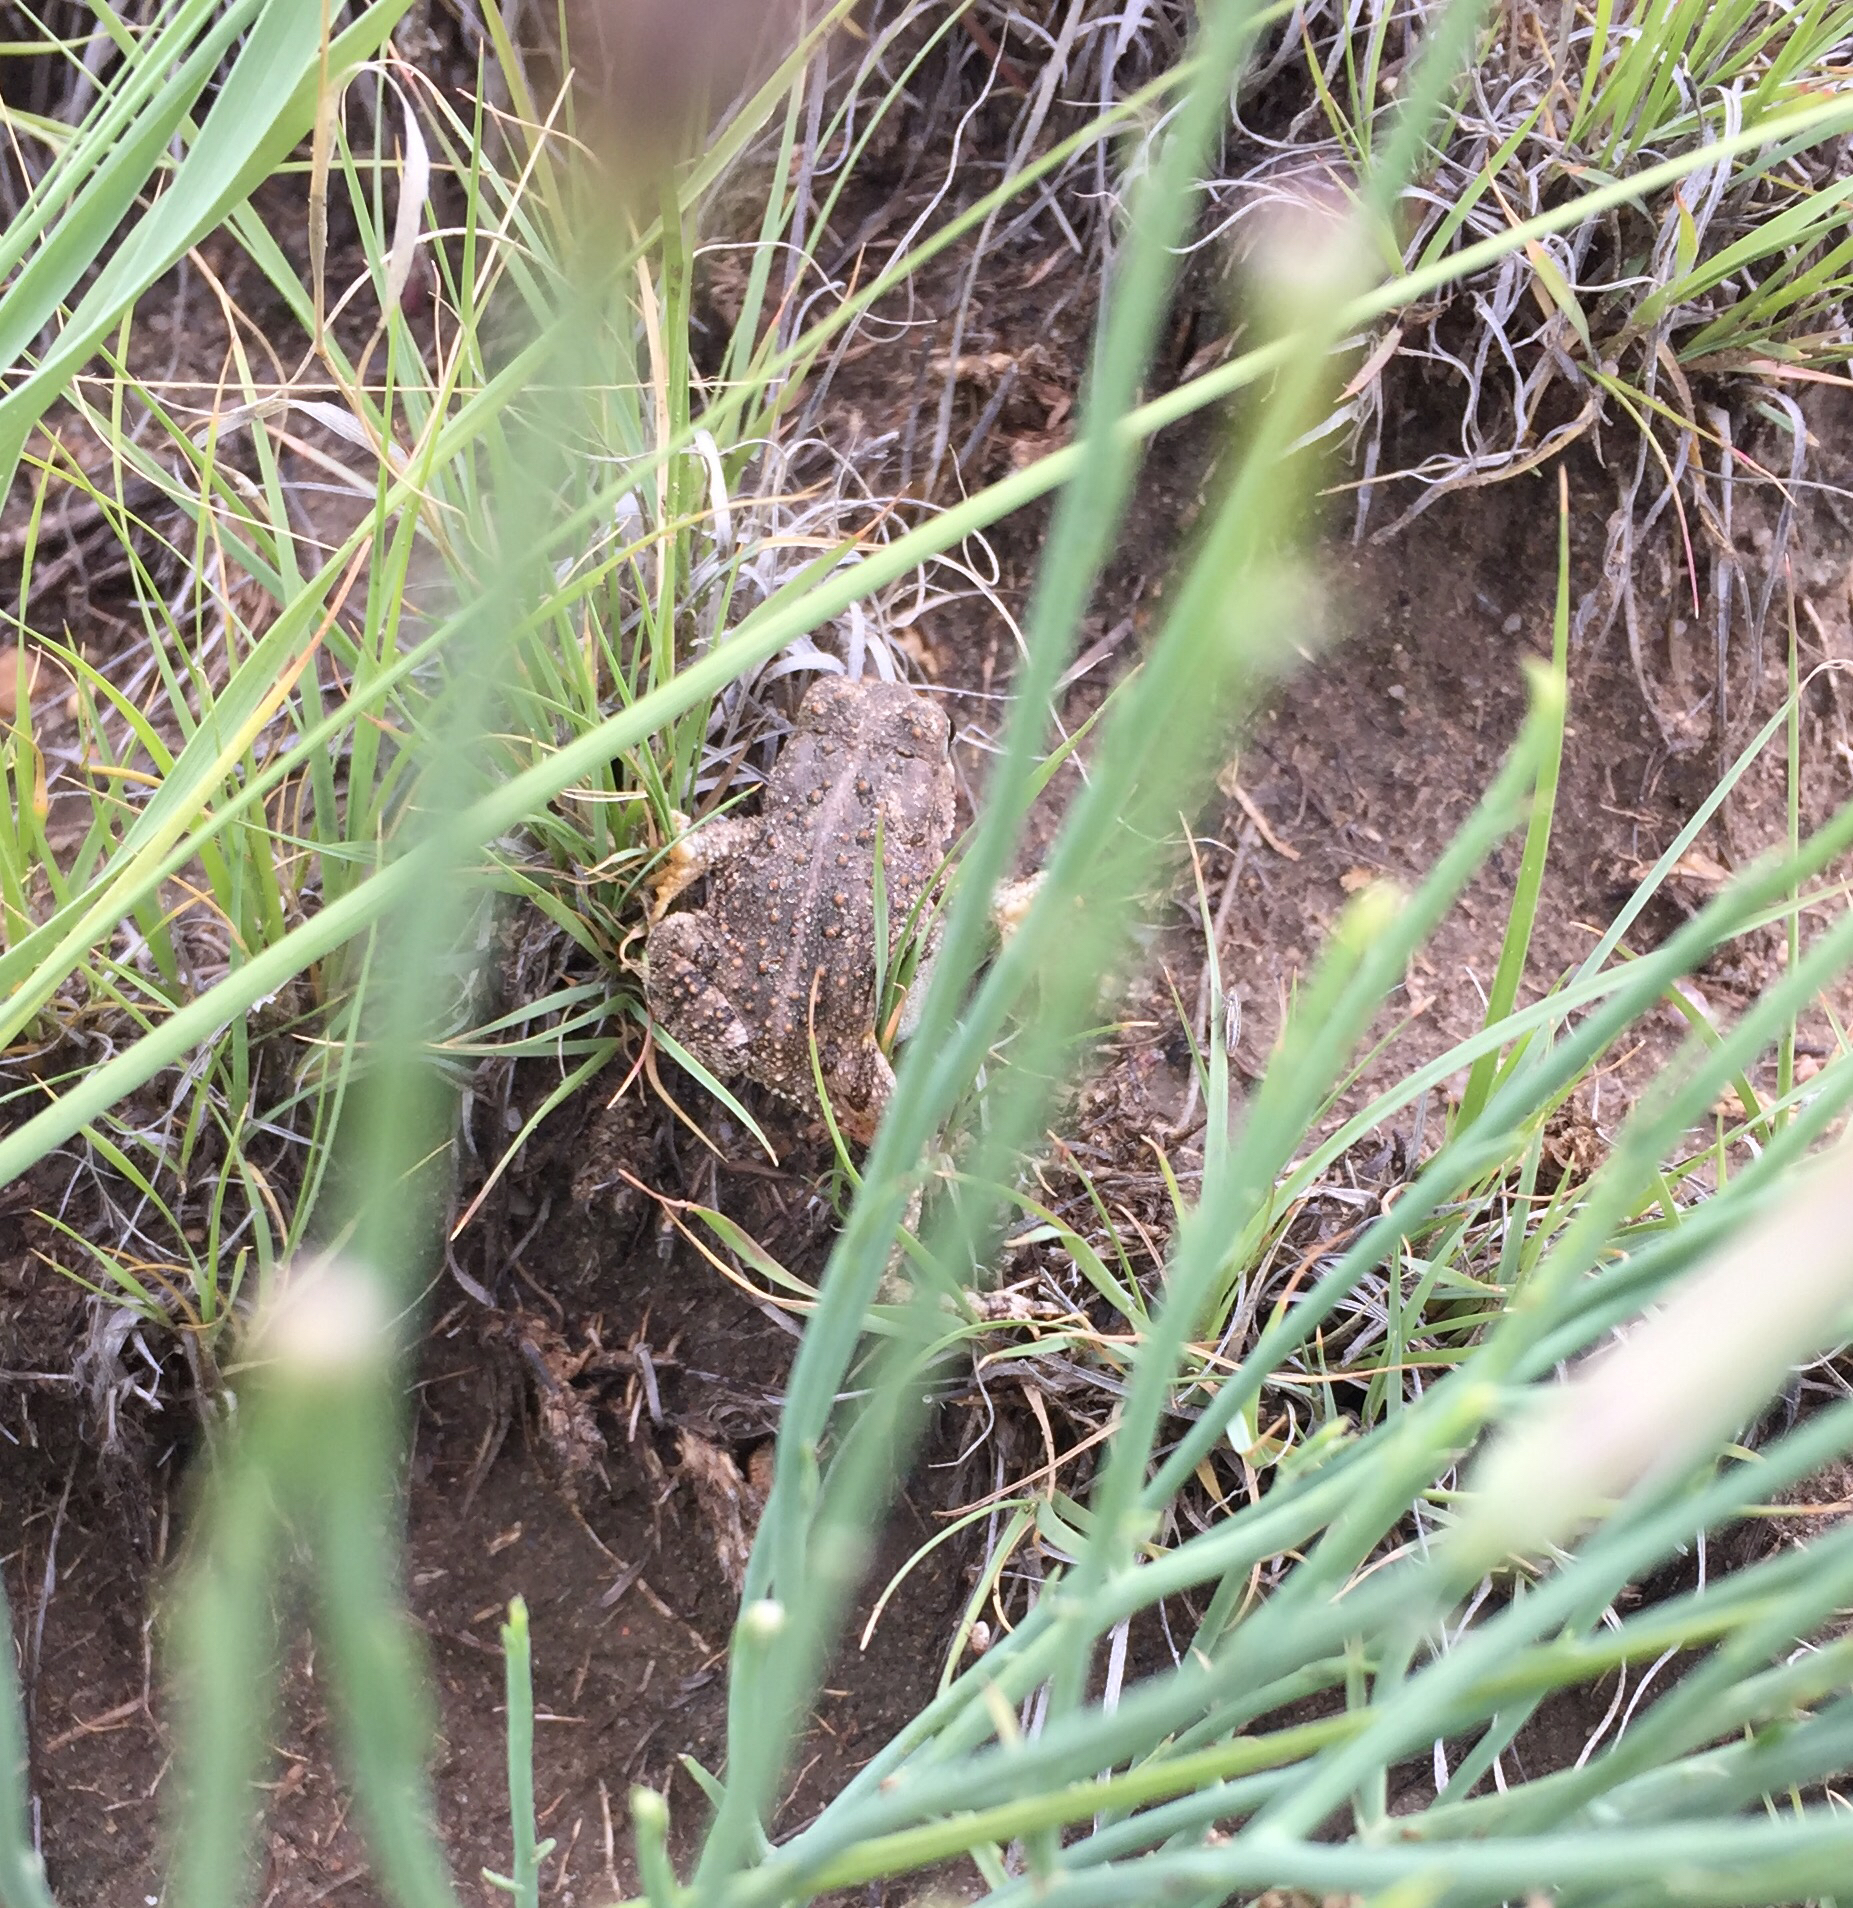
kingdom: Animalia
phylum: Chordata
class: Amphibia
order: Anura
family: Bufonidae
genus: Anaxyrus
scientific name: Anaxyrus woodhousii
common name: Woodhouse's toad
